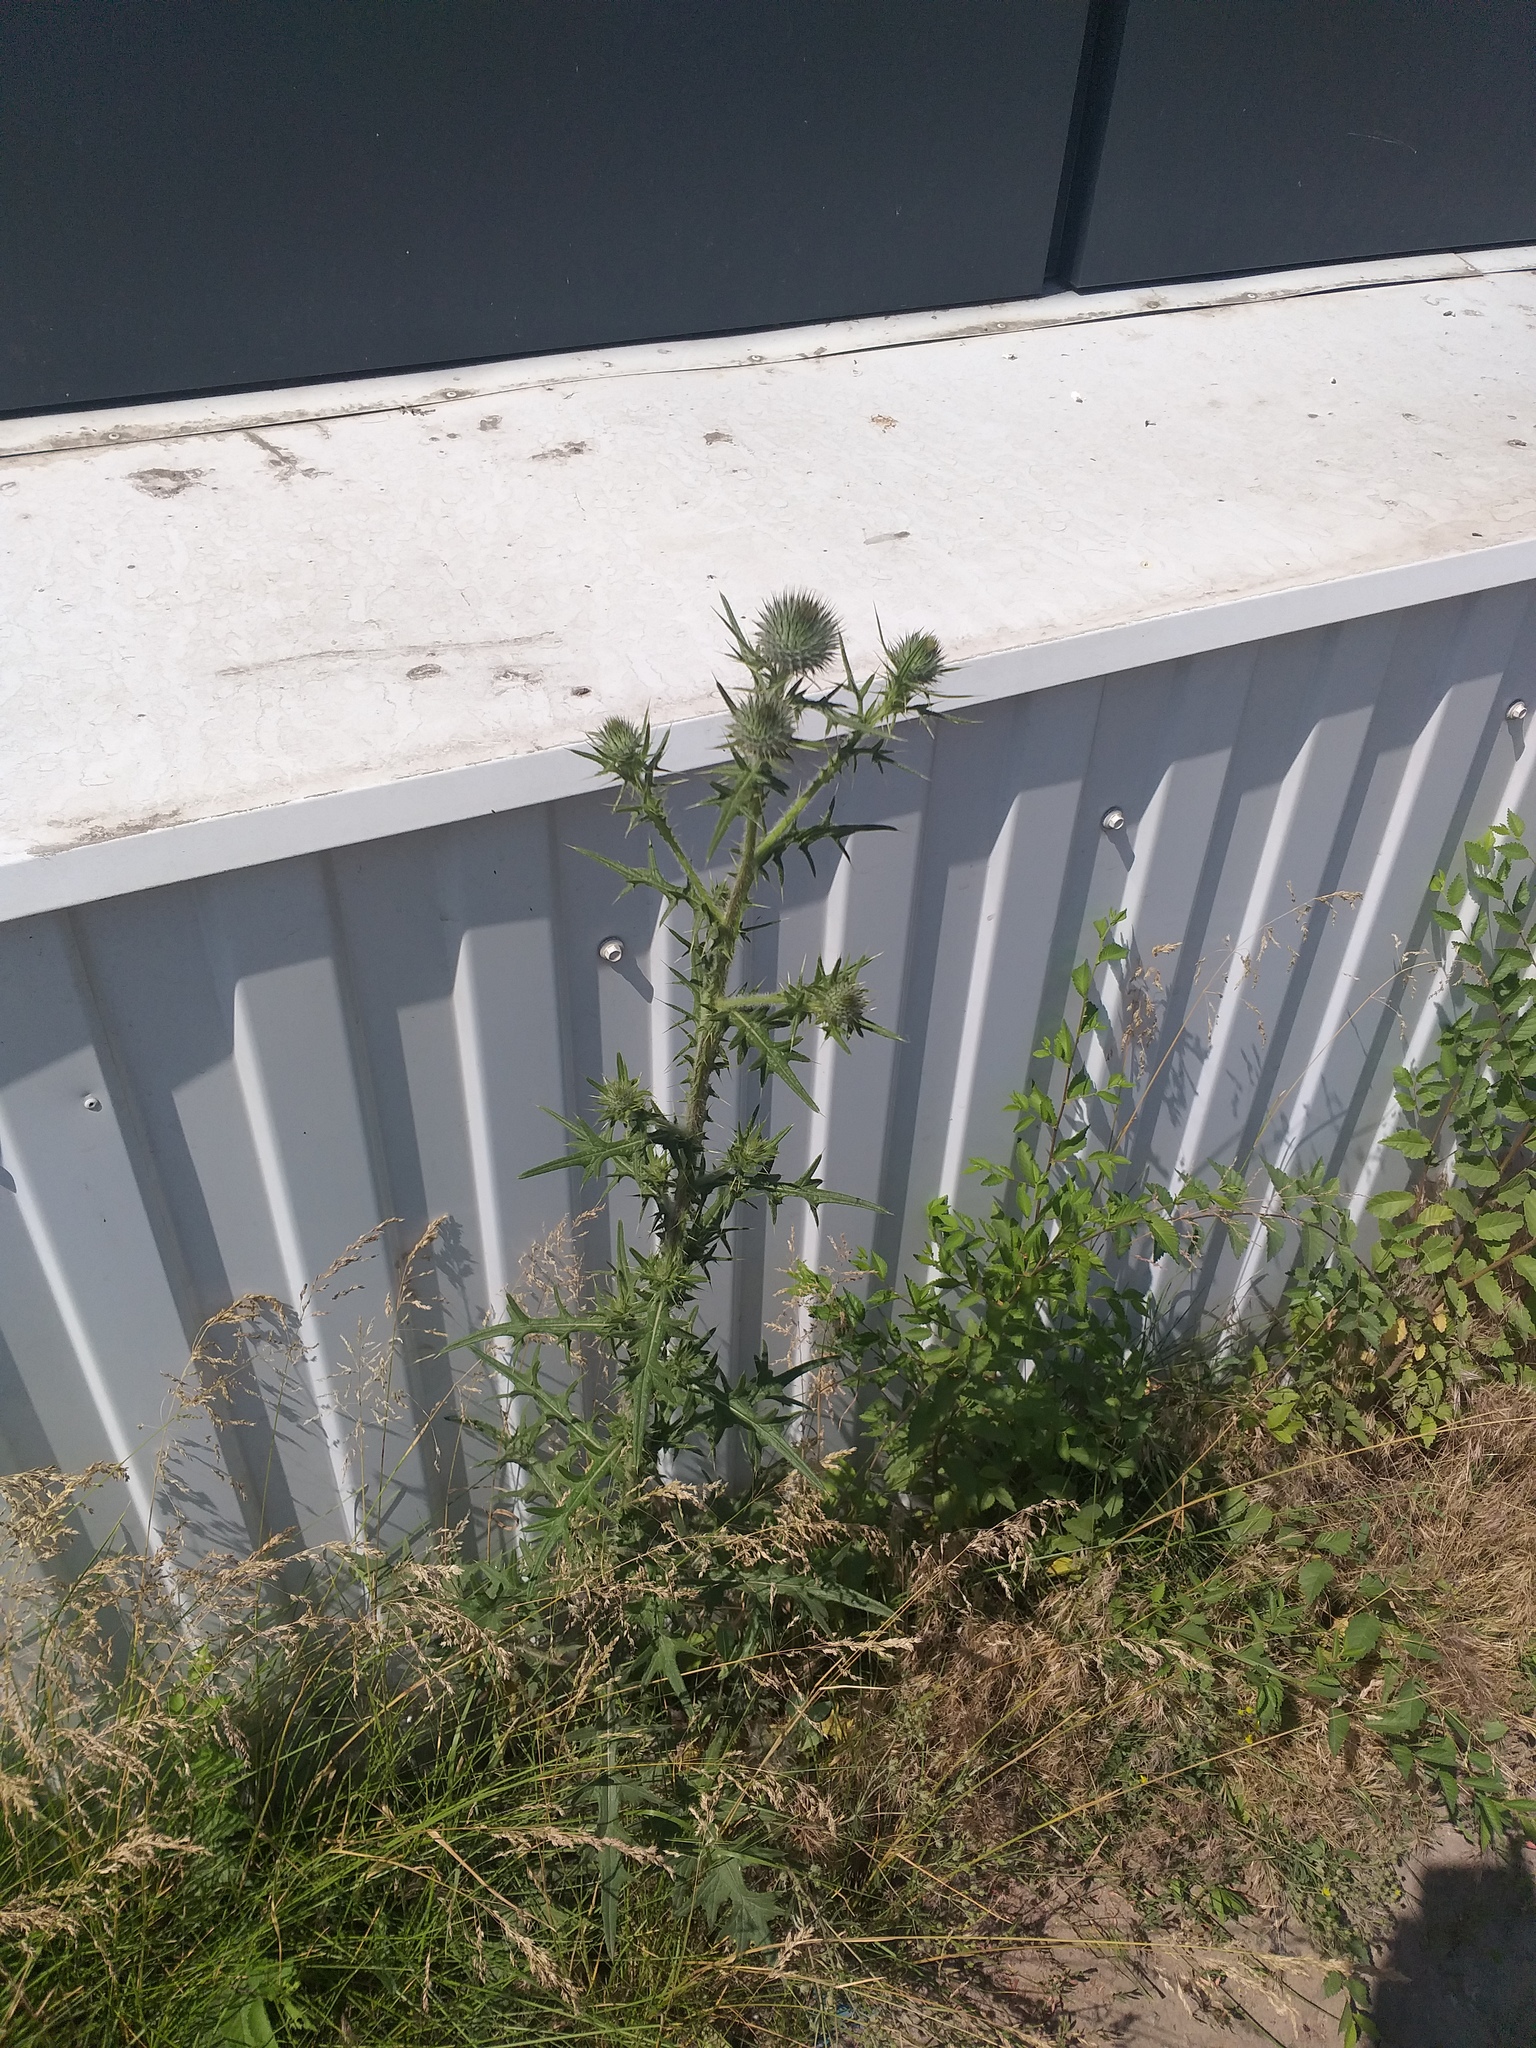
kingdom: Plantae
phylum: Tracheophyta
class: Magnoliopsida
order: Asterales
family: Asteraceae
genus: Cirsium
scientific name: Cirsium vulgare
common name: Bull thistle
